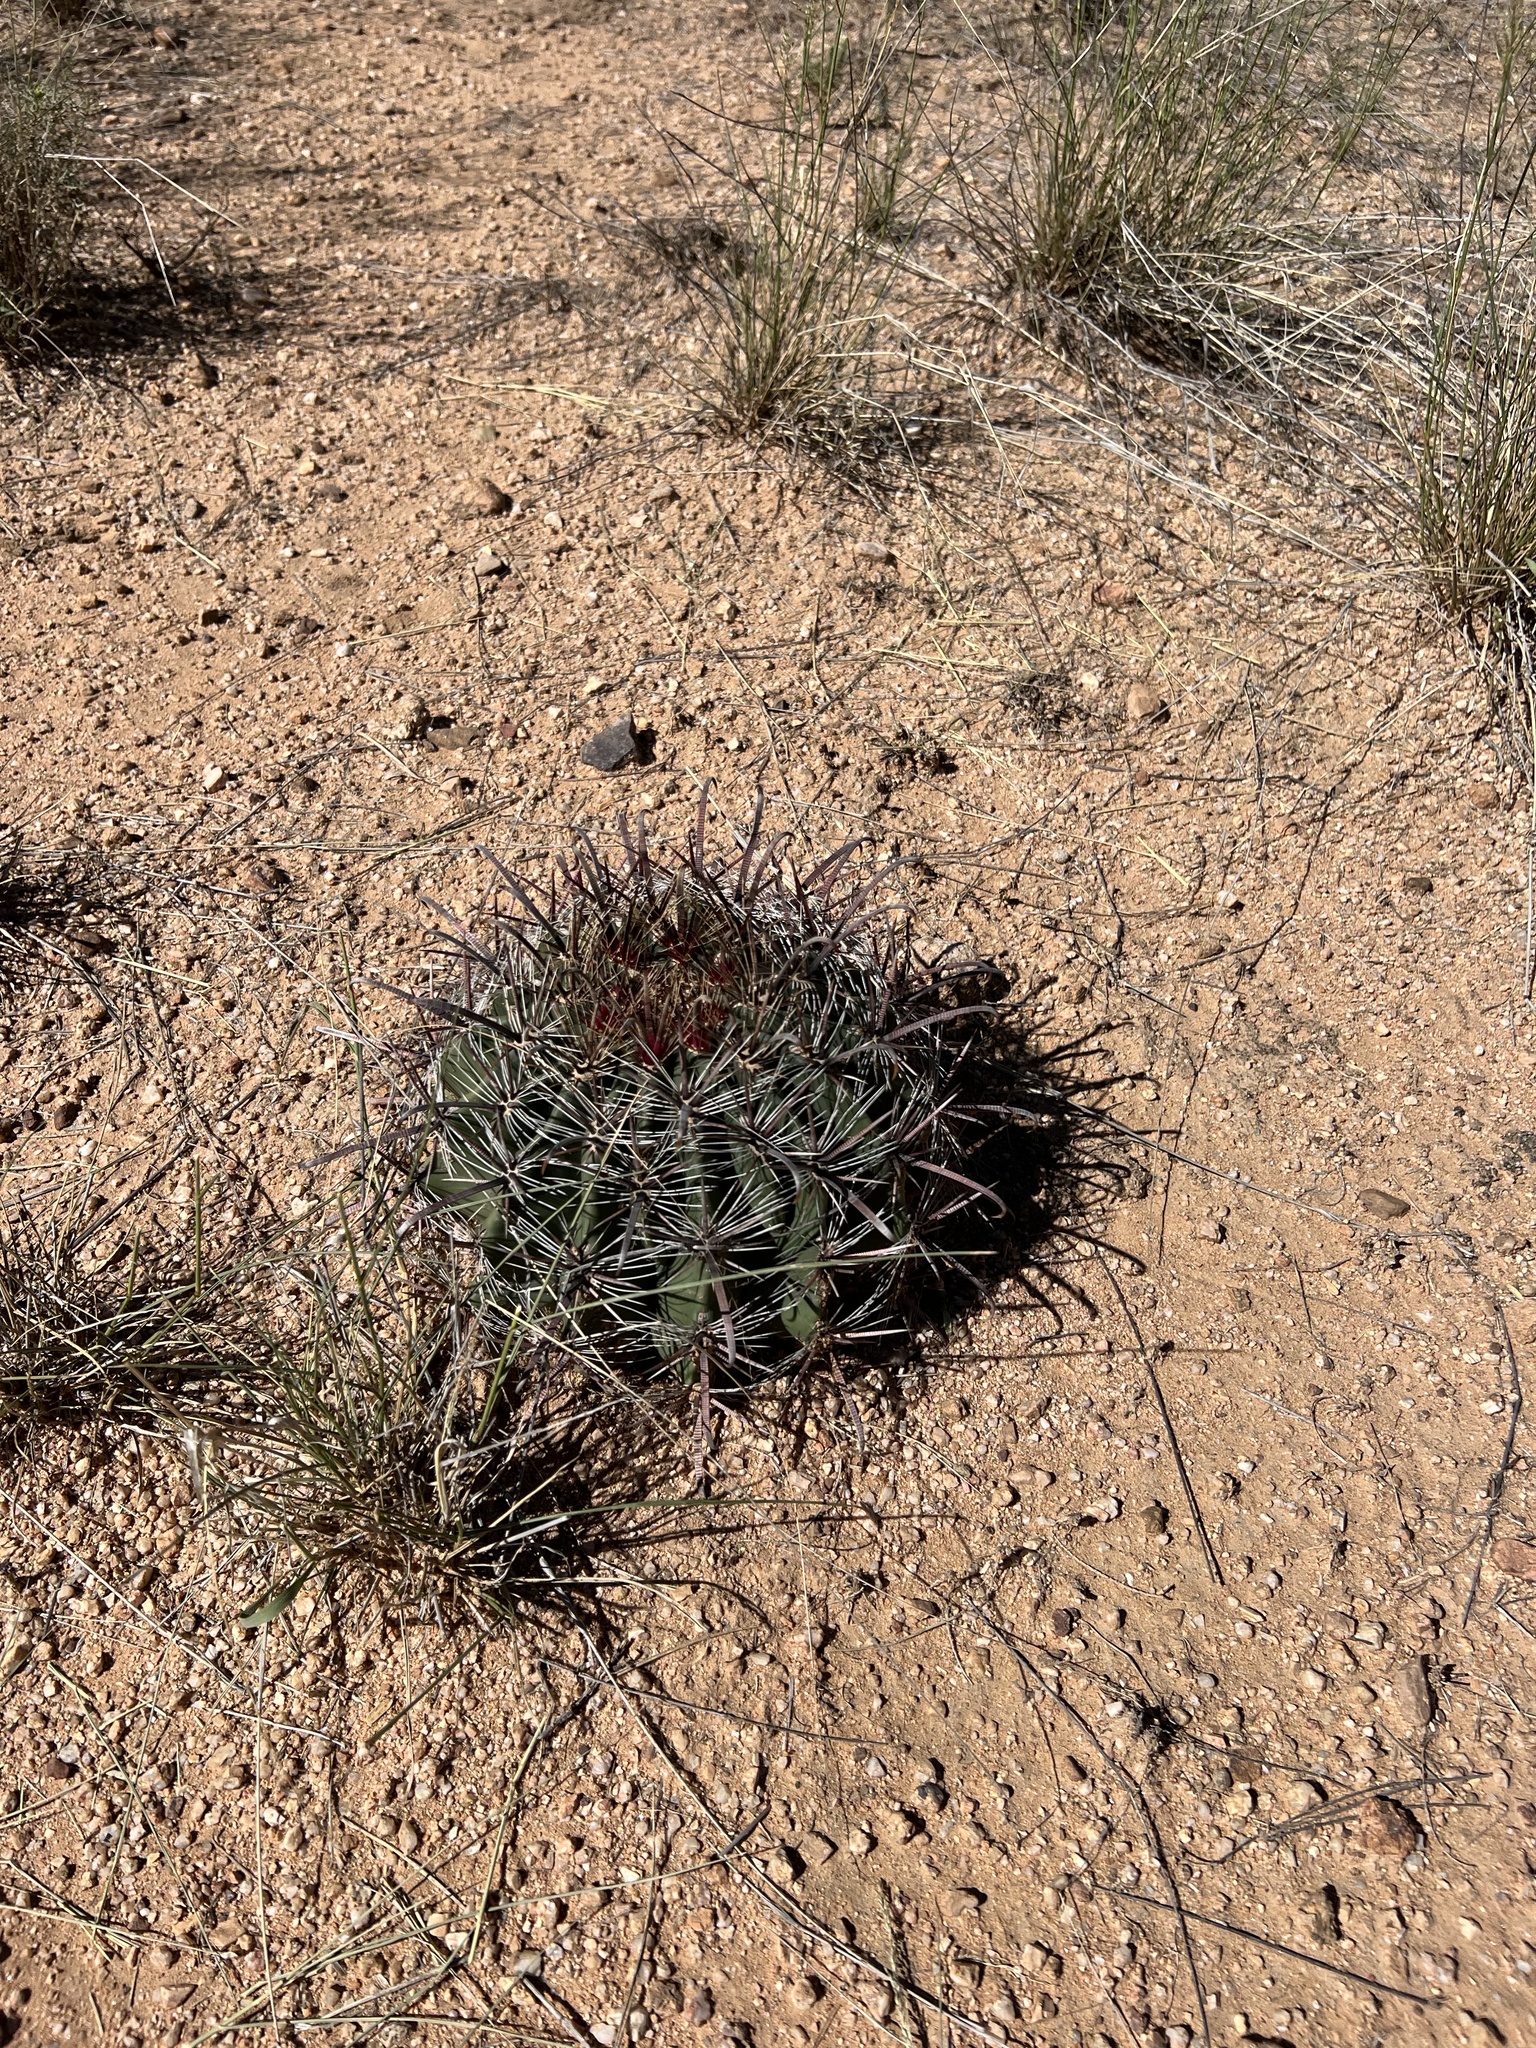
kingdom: Plantae
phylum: Tracheophyta
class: Magnoliopsida
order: Caryophyllales
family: Cactaceae
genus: Ferocactus
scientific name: Ferocactus wislizeni
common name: Candy barrel cactus
